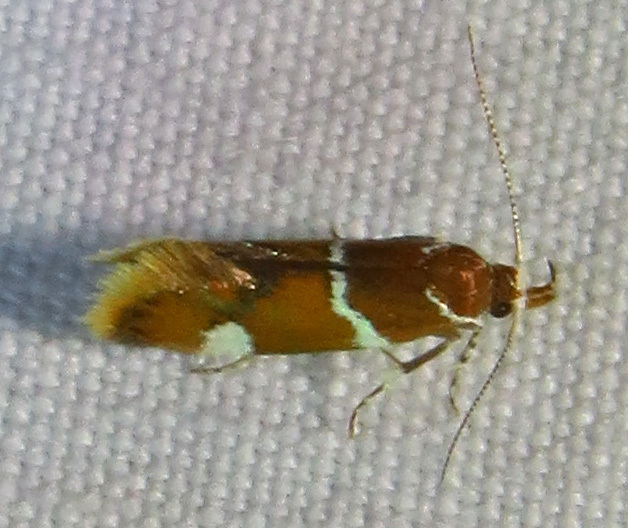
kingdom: Animalia
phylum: Arthropoda
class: Insecta
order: Lepidoptera
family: Oecophoridae
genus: Promalactis
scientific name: Promalactis suzukiella
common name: Moth
